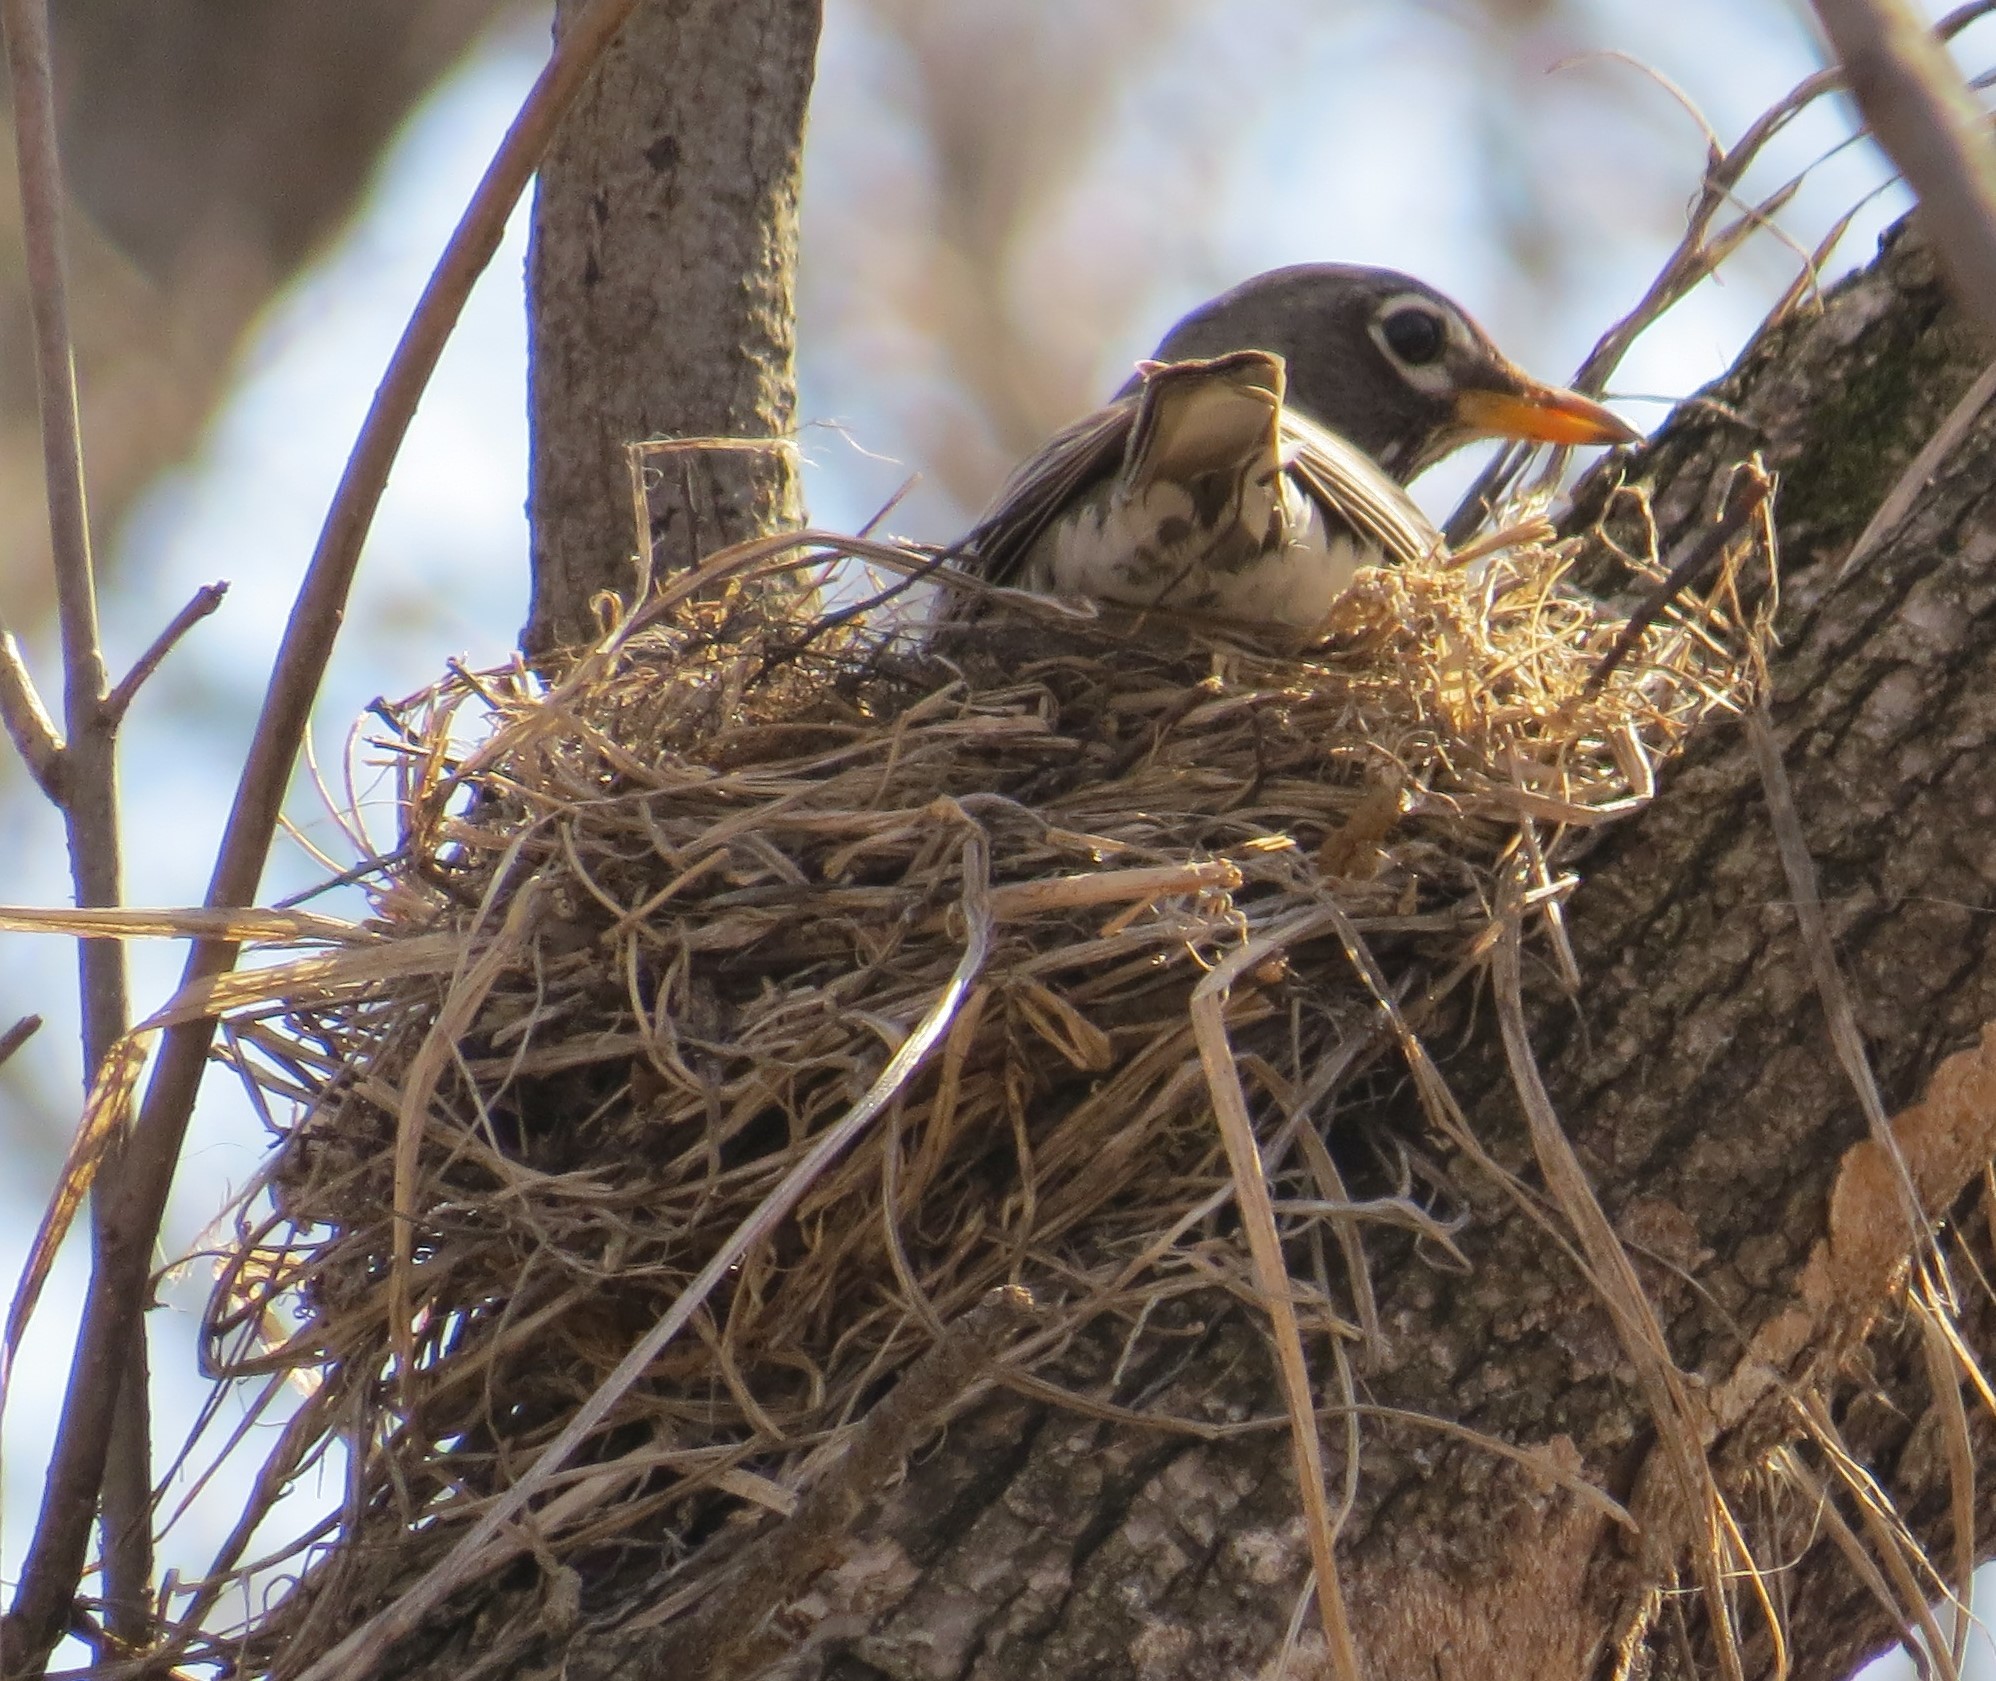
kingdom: Animalia
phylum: Chordata
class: Aves
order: Passeriformes
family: Turdidae
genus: Turdus
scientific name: Turdus migratorius
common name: American robin
